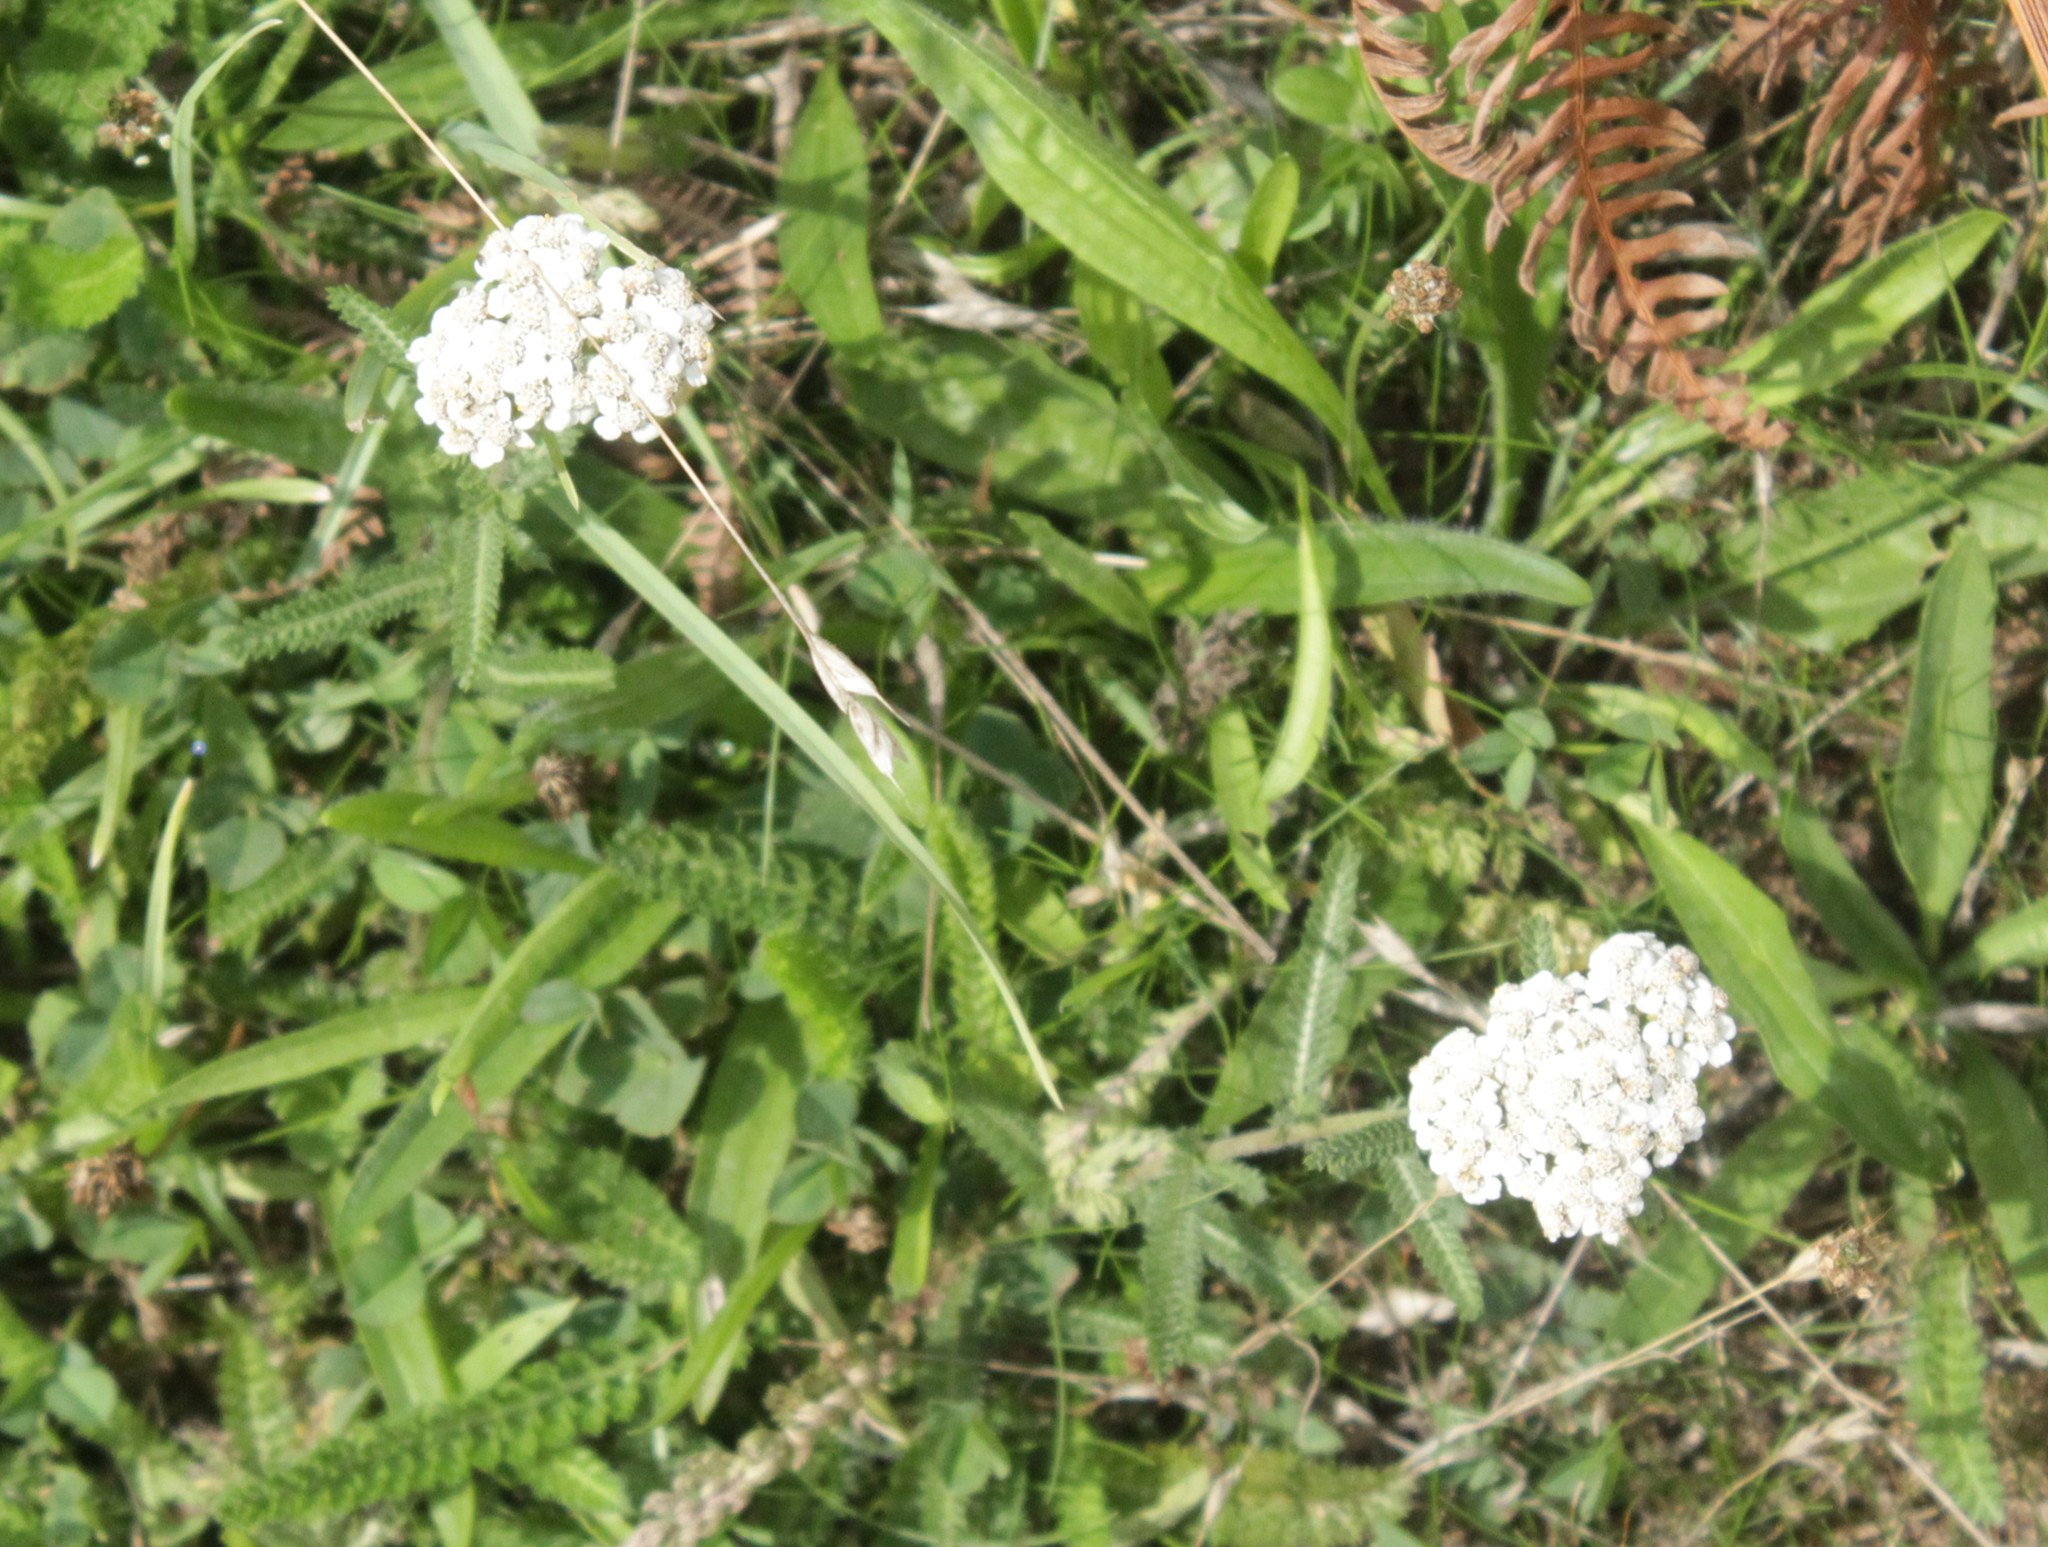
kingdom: Plantae
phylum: Tracheophyta
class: Magnoliopsida
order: Asterales
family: Asteraceae
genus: Achillea
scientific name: Achillea millefolium
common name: Yarrow
